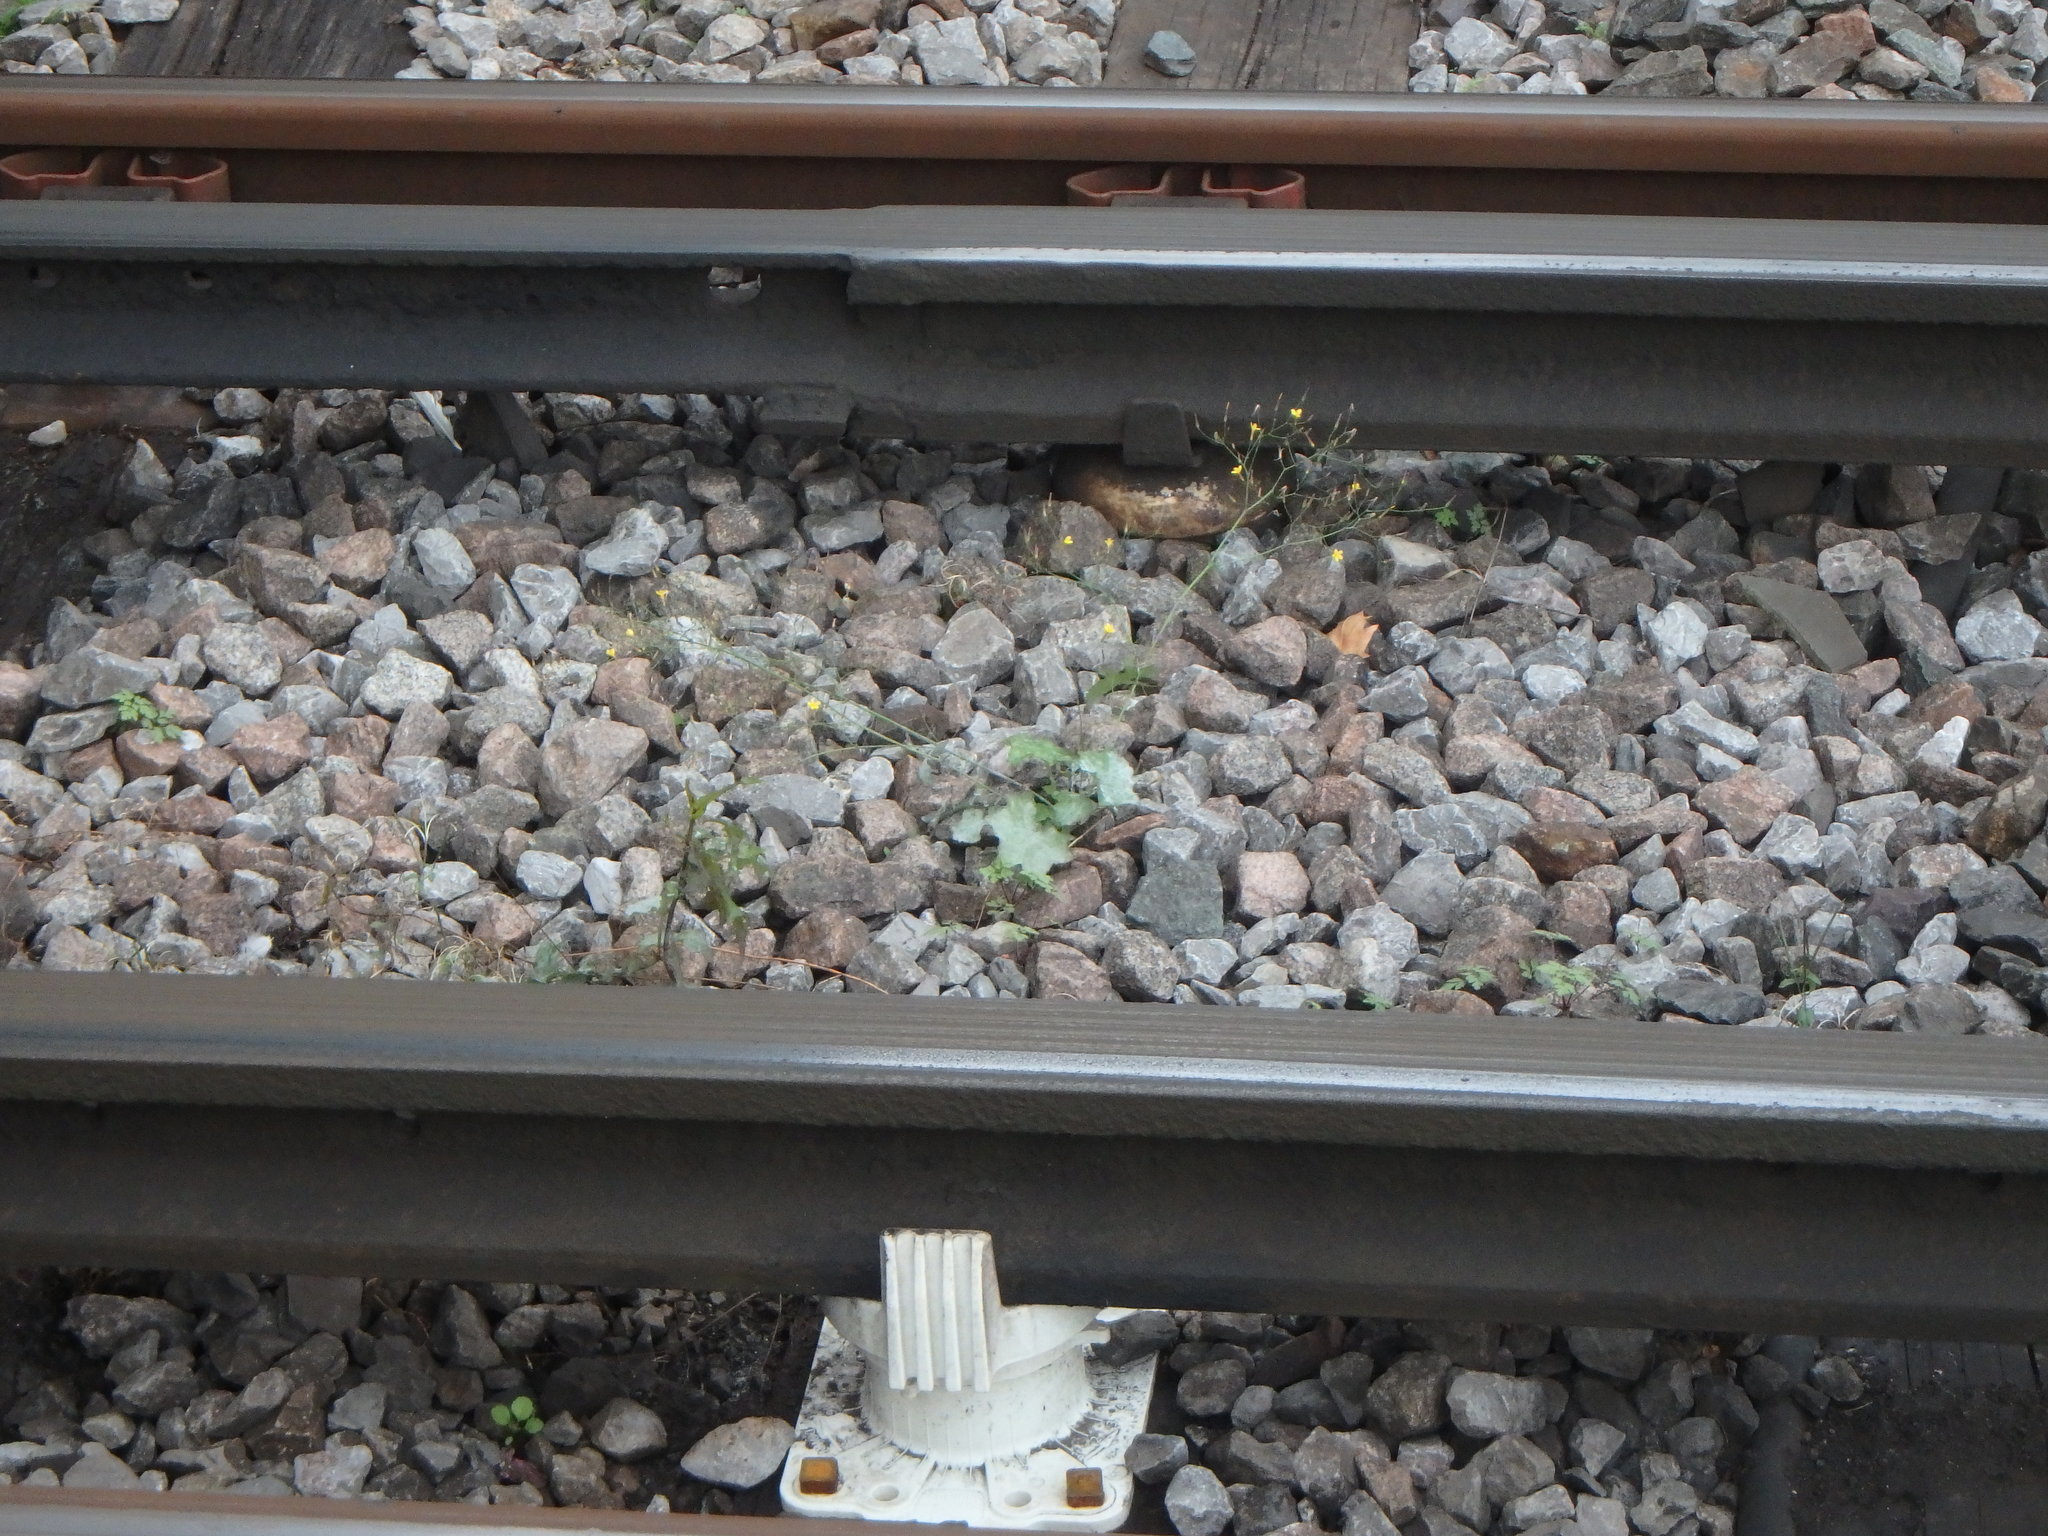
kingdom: Plantae
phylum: Tracheophyta
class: Magnoliopsida
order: Asterales
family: Asteraceae
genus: Mycelis
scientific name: Mycelis muralis
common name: Wall lettuce
